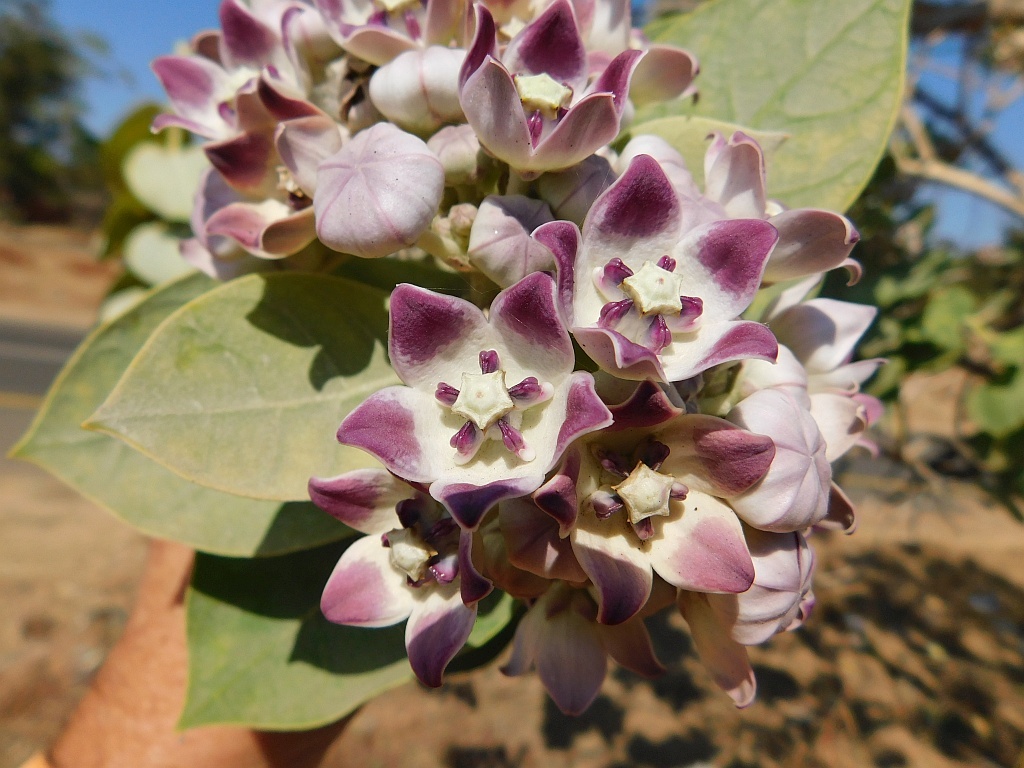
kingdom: Plantae
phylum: Tracheophyta
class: Magnoliopsida
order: Gentianales
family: Apocynaceae
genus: Calotropis
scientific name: Calotropis procera
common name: Roostertree
